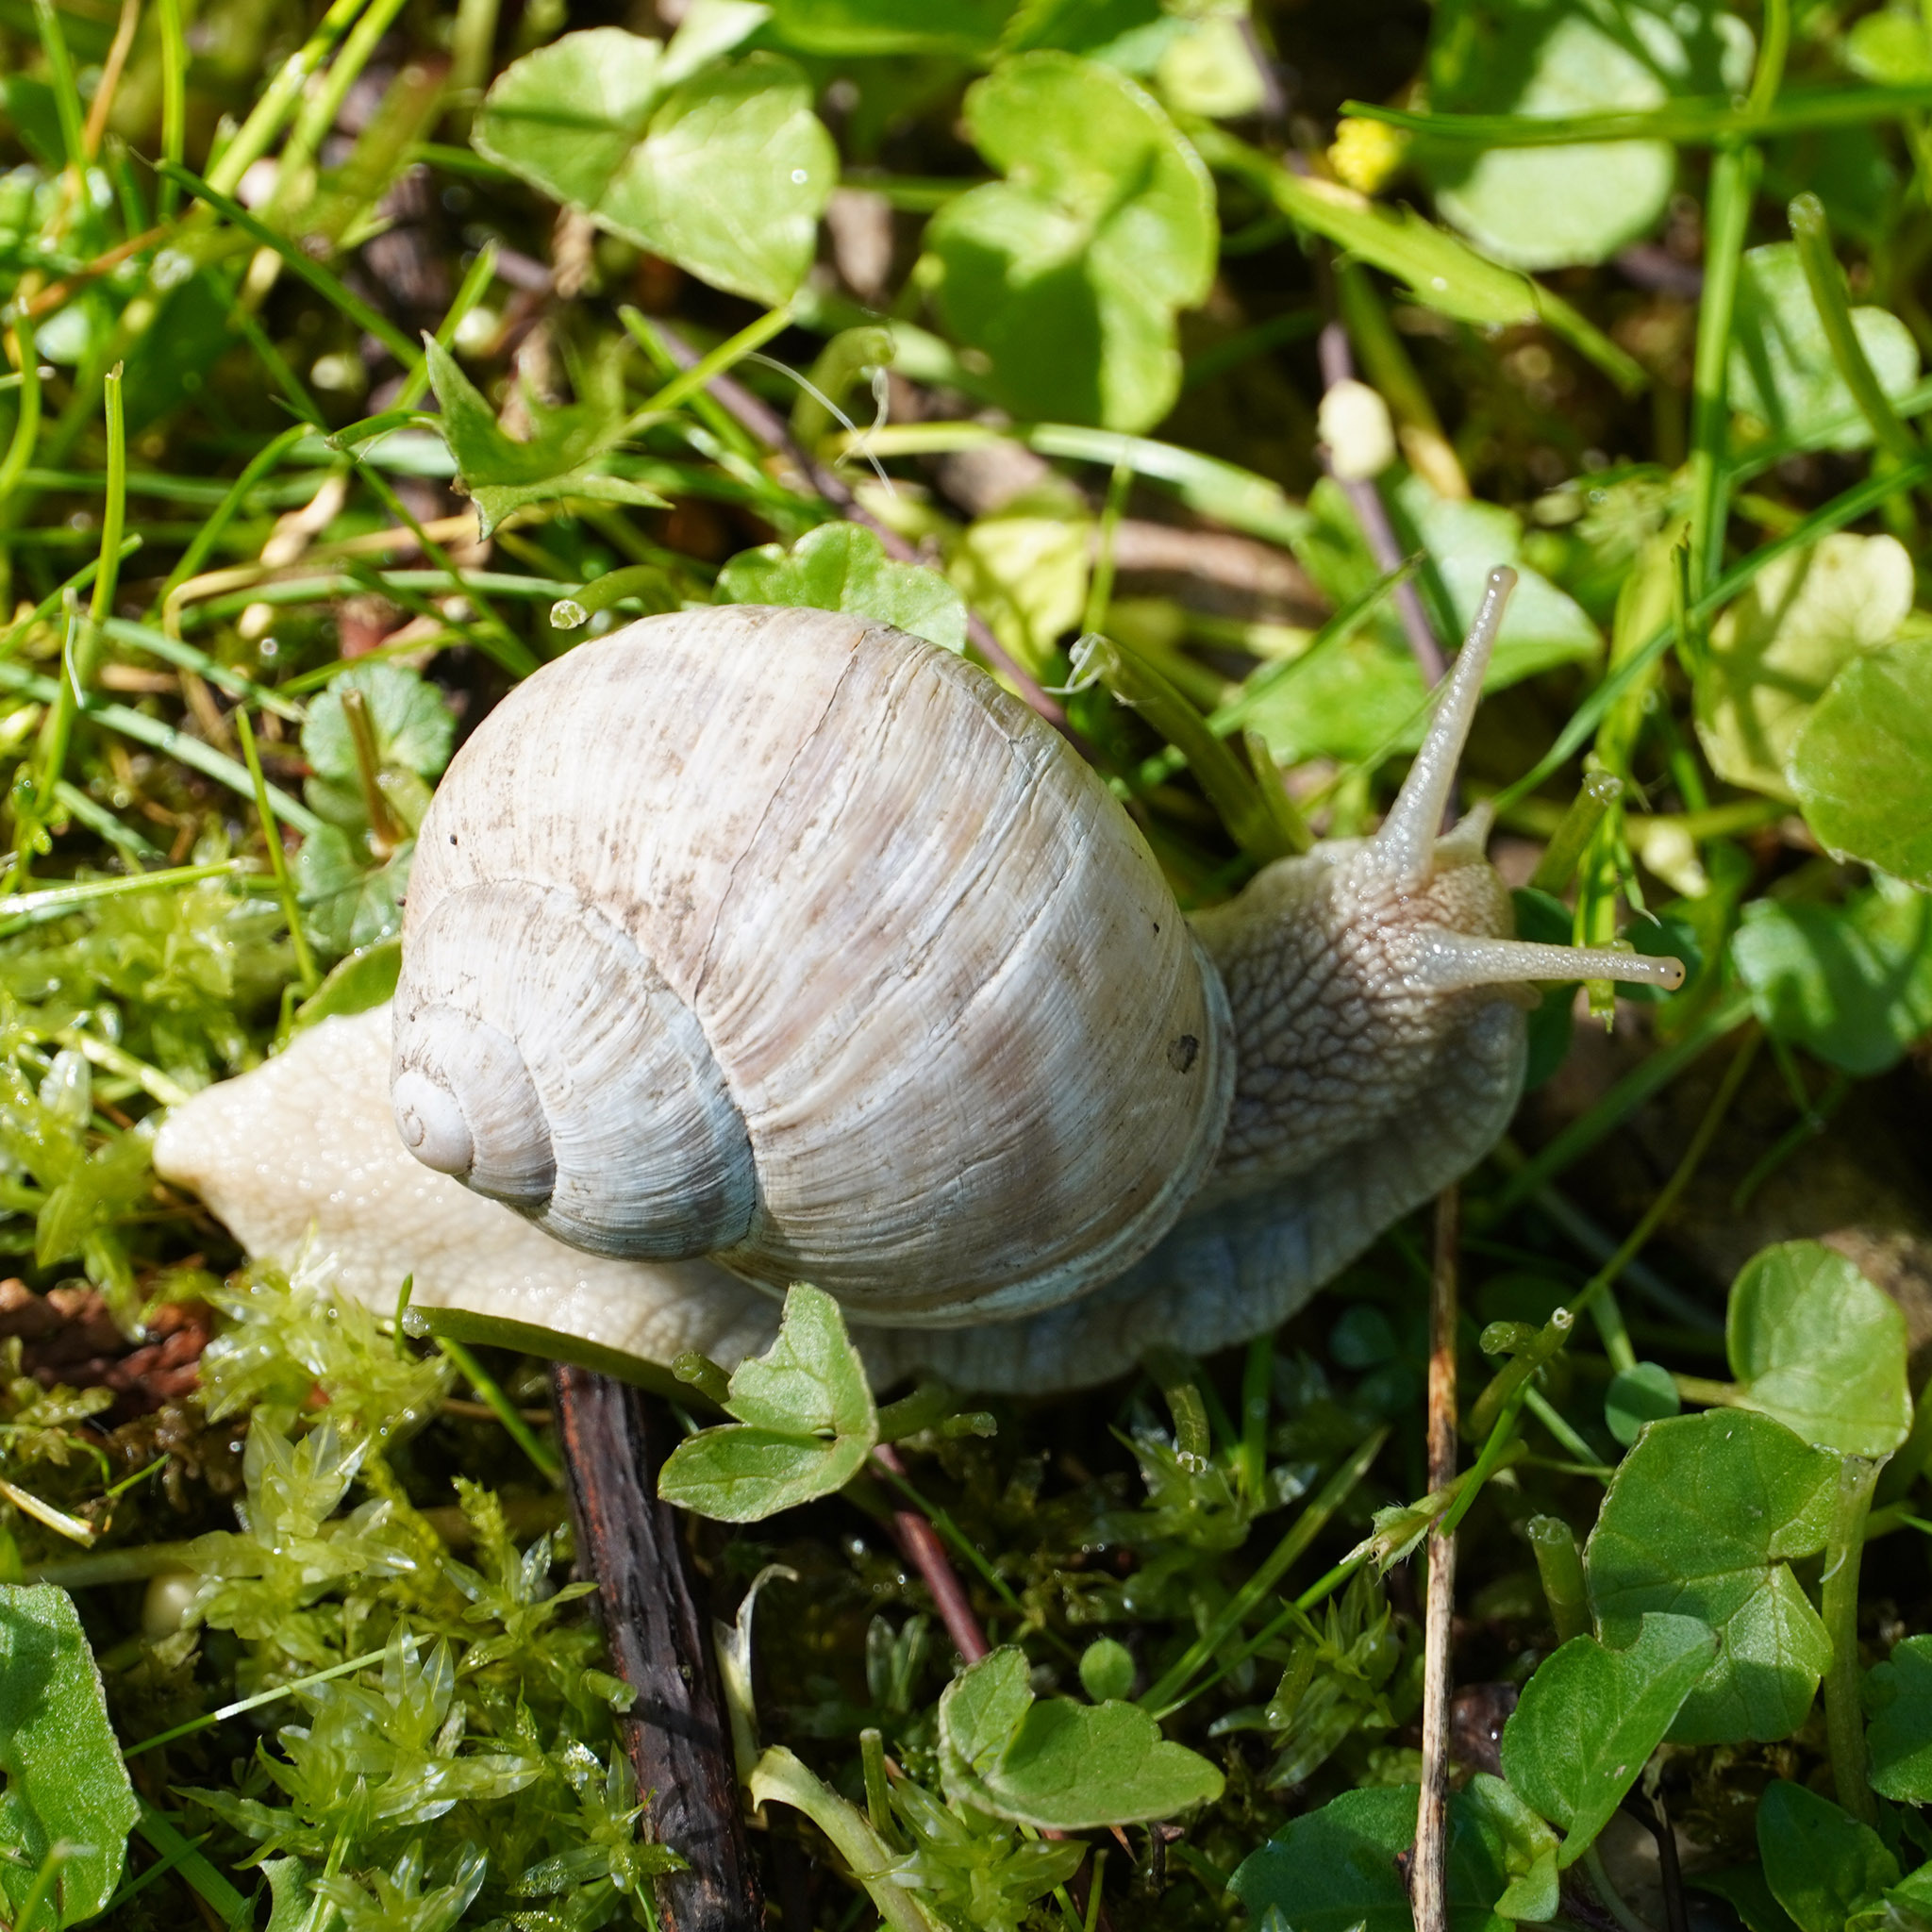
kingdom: Animalia
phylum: Mollusca
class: Gastropoda
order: Stylommatophora
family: Helicidae
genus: Helix
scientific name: Helix pomatia
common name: Roman snail
